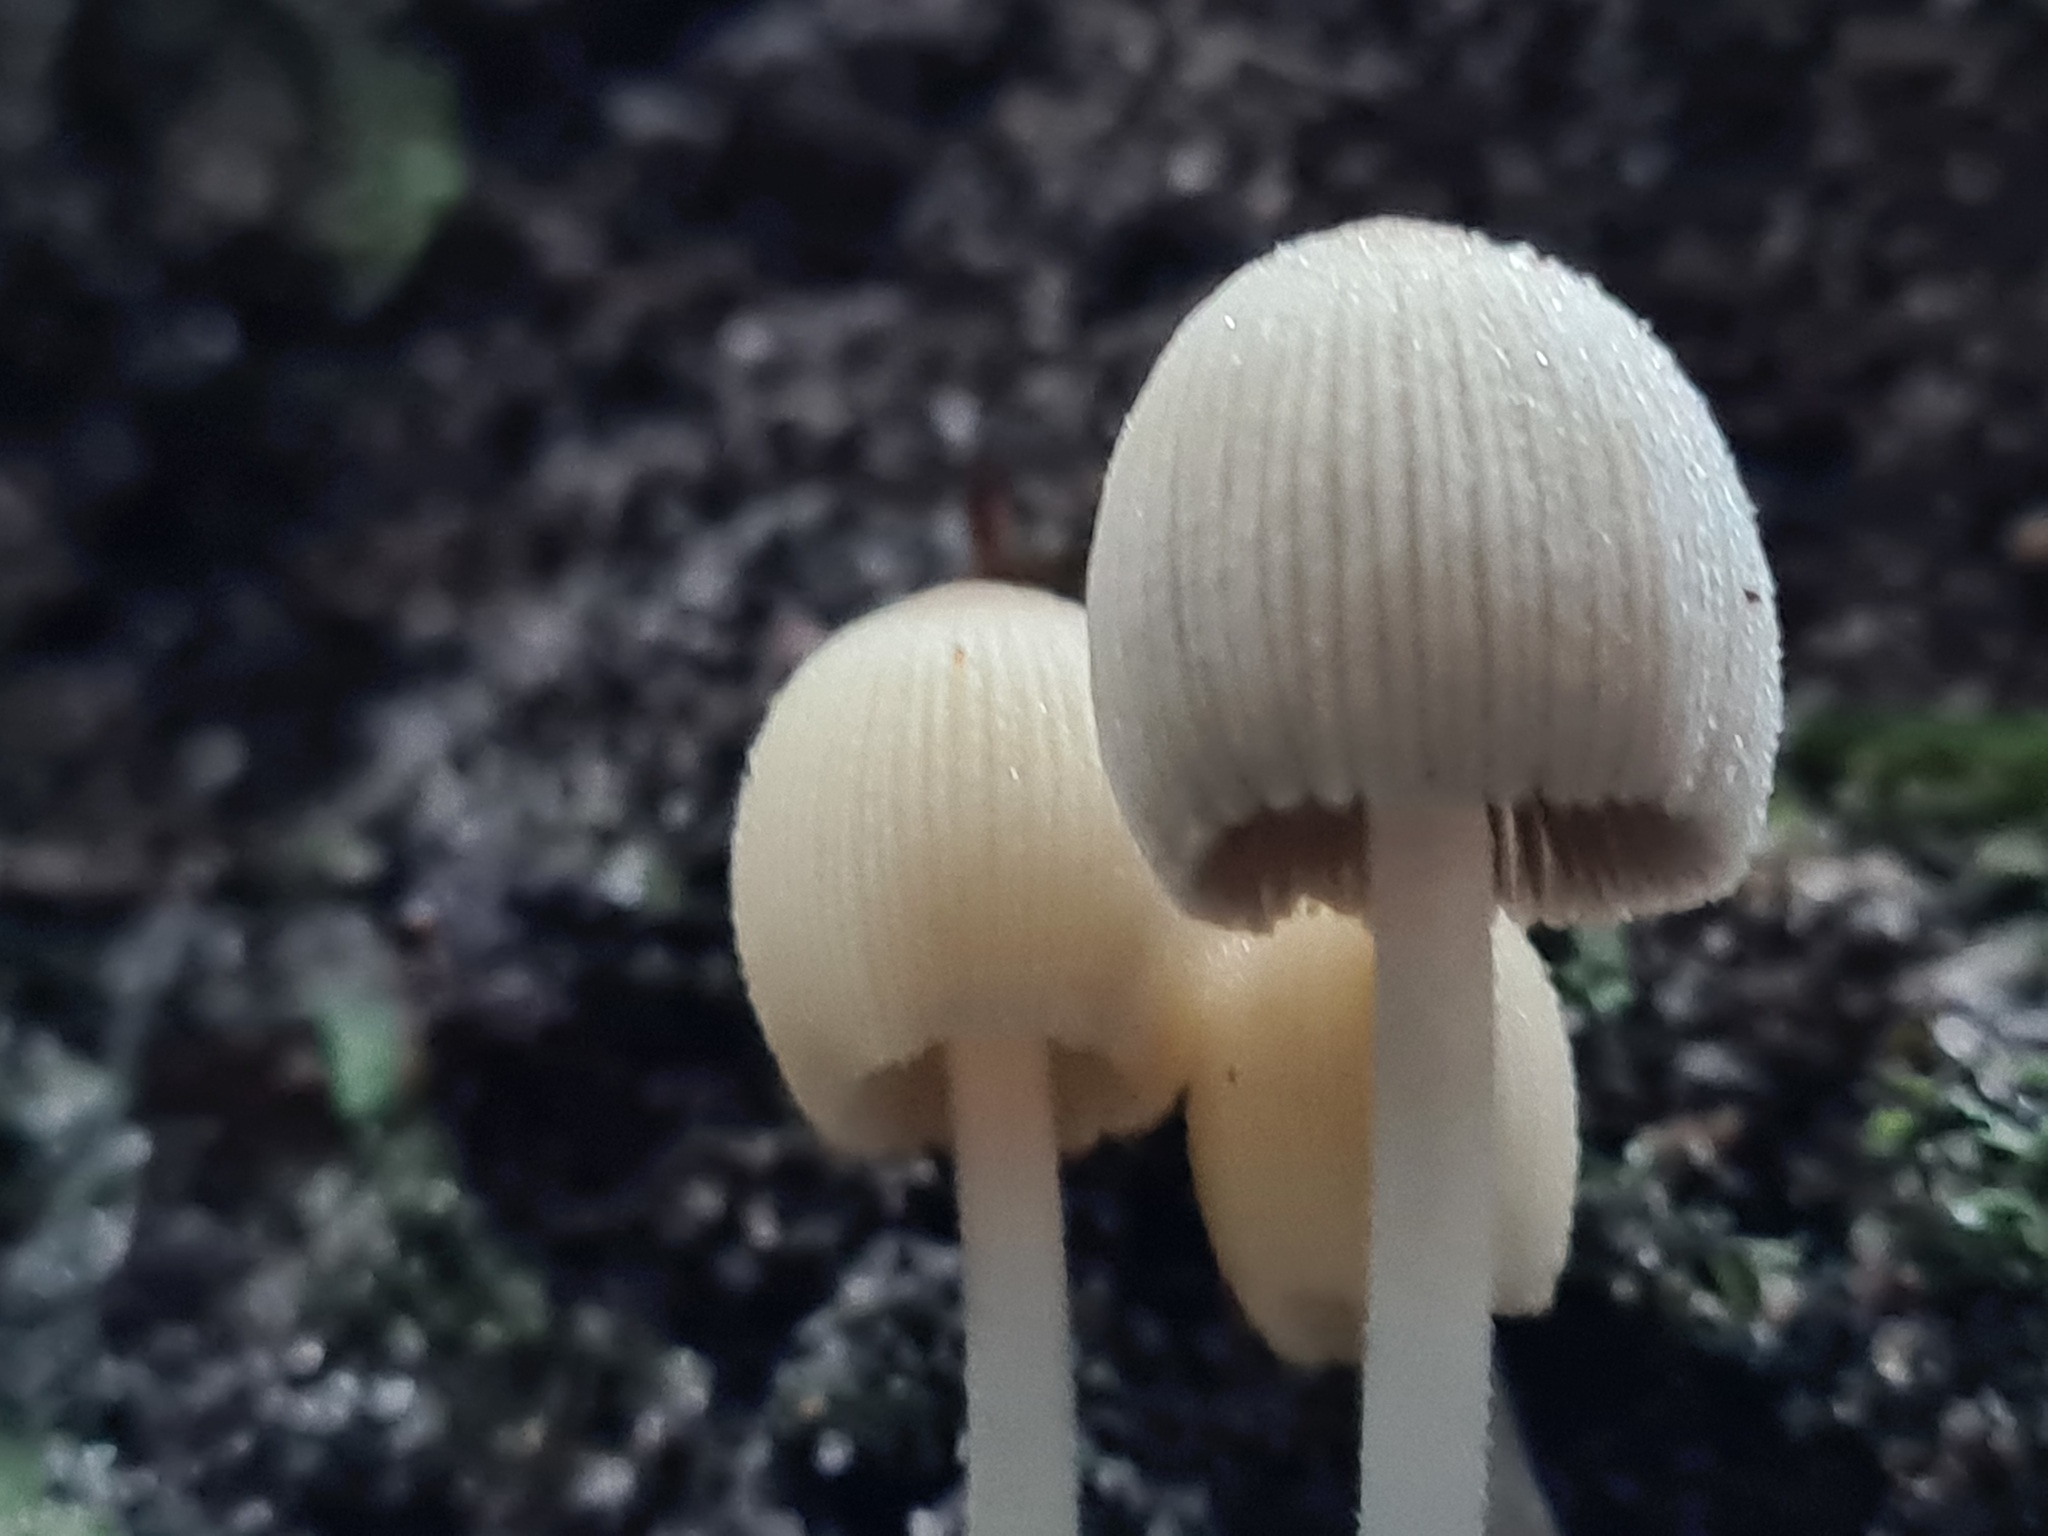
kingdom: Fungi
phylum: Basidiomycota
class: Agaricomycetes
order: Agaricales
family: Psathyrellaceae
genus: Coprinellus
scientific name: Coprinellus disseminatus
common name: Fairies' bonnets
